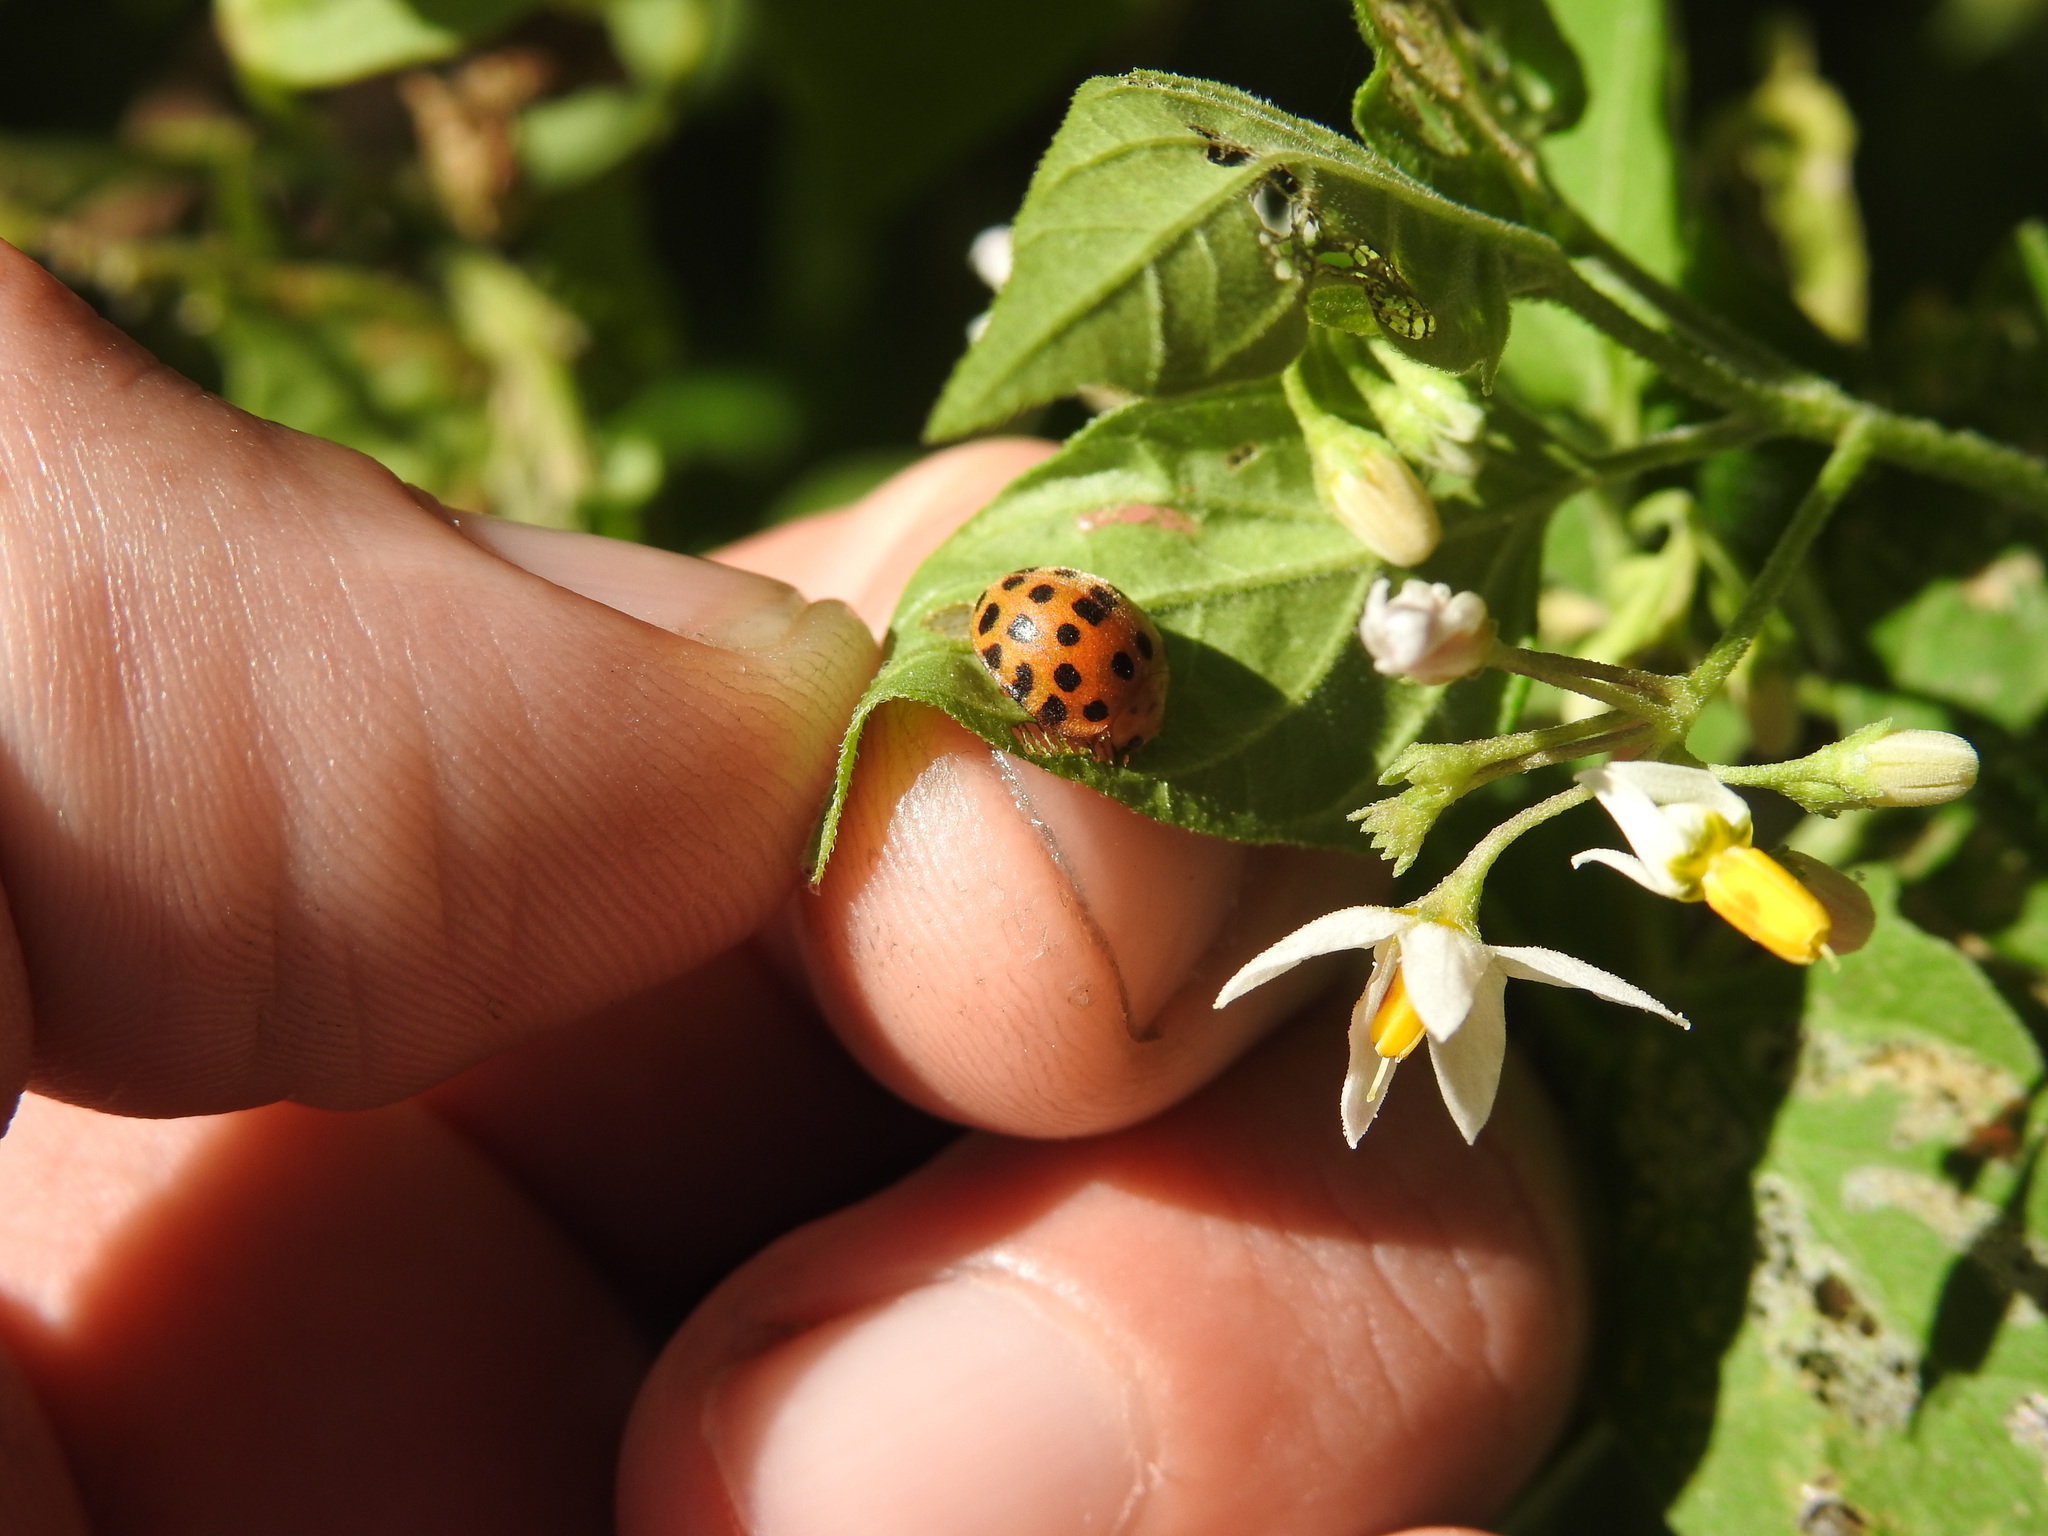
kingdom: Animalia
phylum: Arthropoda
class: Insecta
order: Coleoptera
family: Coccinellidae
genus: Henosepilachna
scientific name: Henosepilachna vigintioctopunctata
